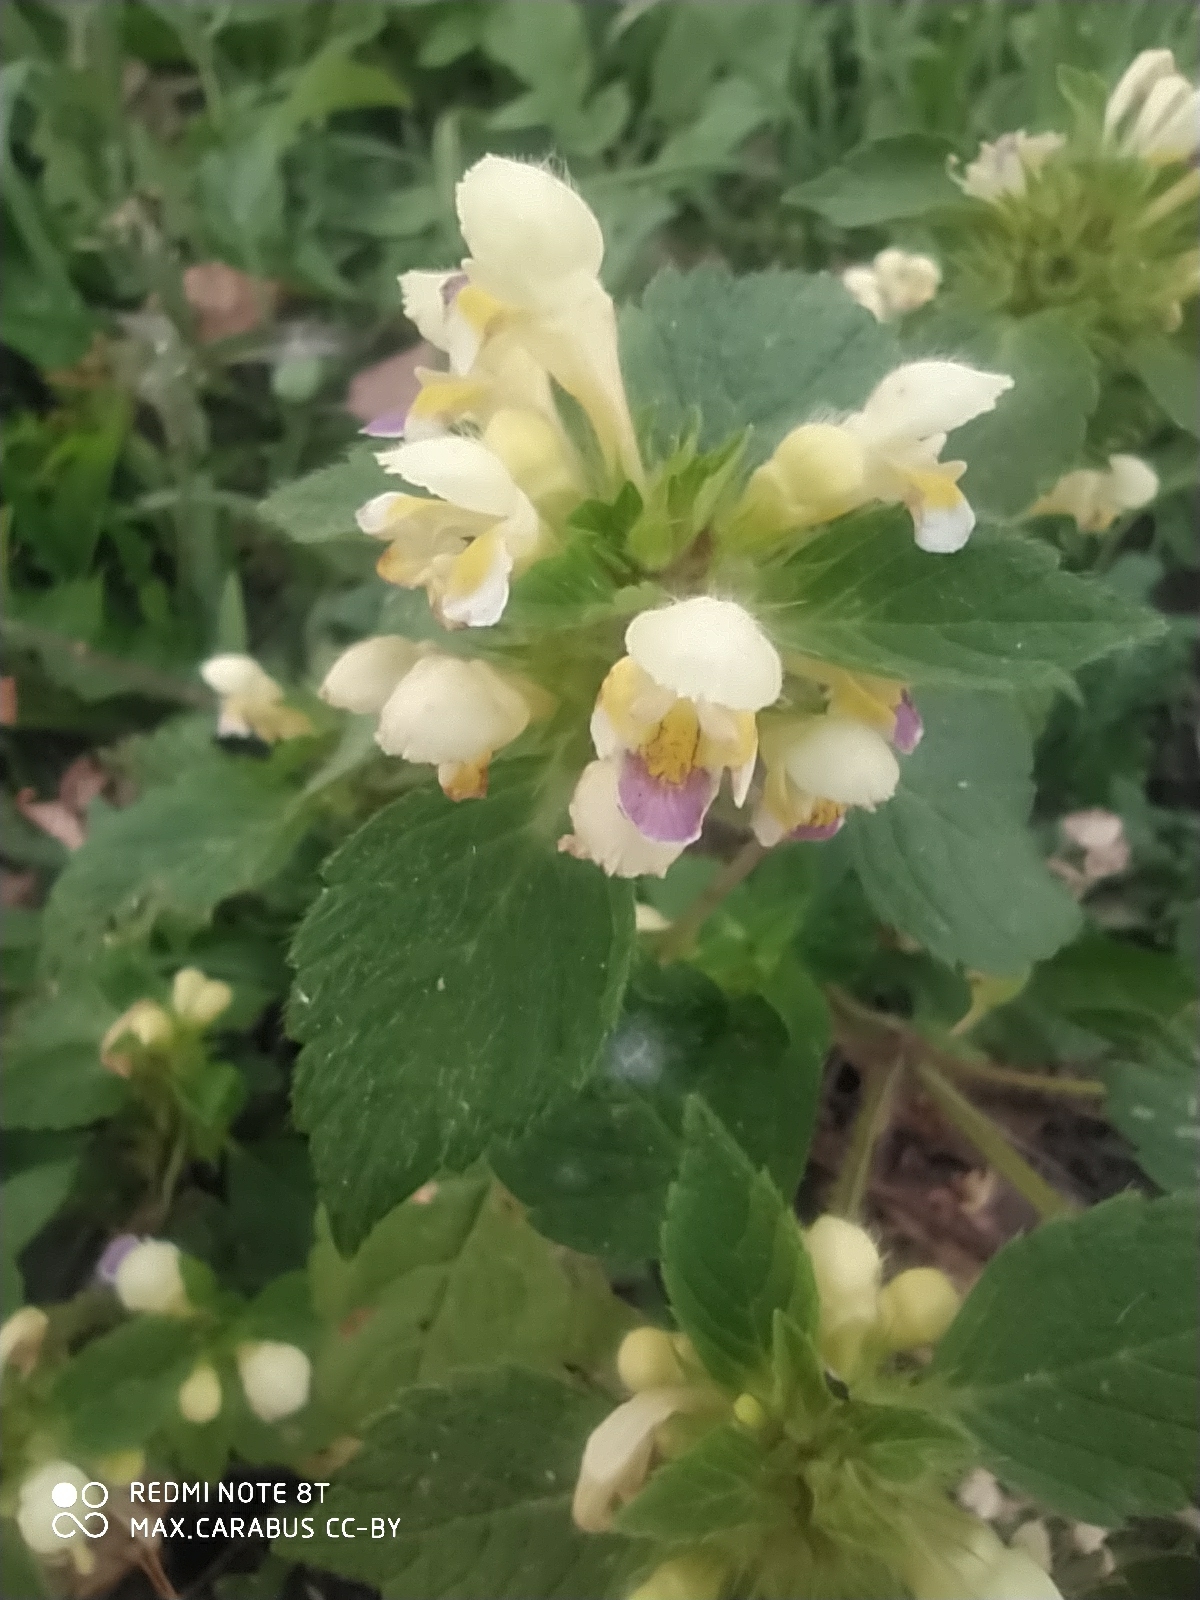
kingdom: Plantae
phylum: Tracheophyta
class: Magnoliopsida
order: Lamiales
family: Lamiaceae
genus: Galeopsis
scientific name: Galeopsis speciosa
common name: Large-flowered hemp-nettle
